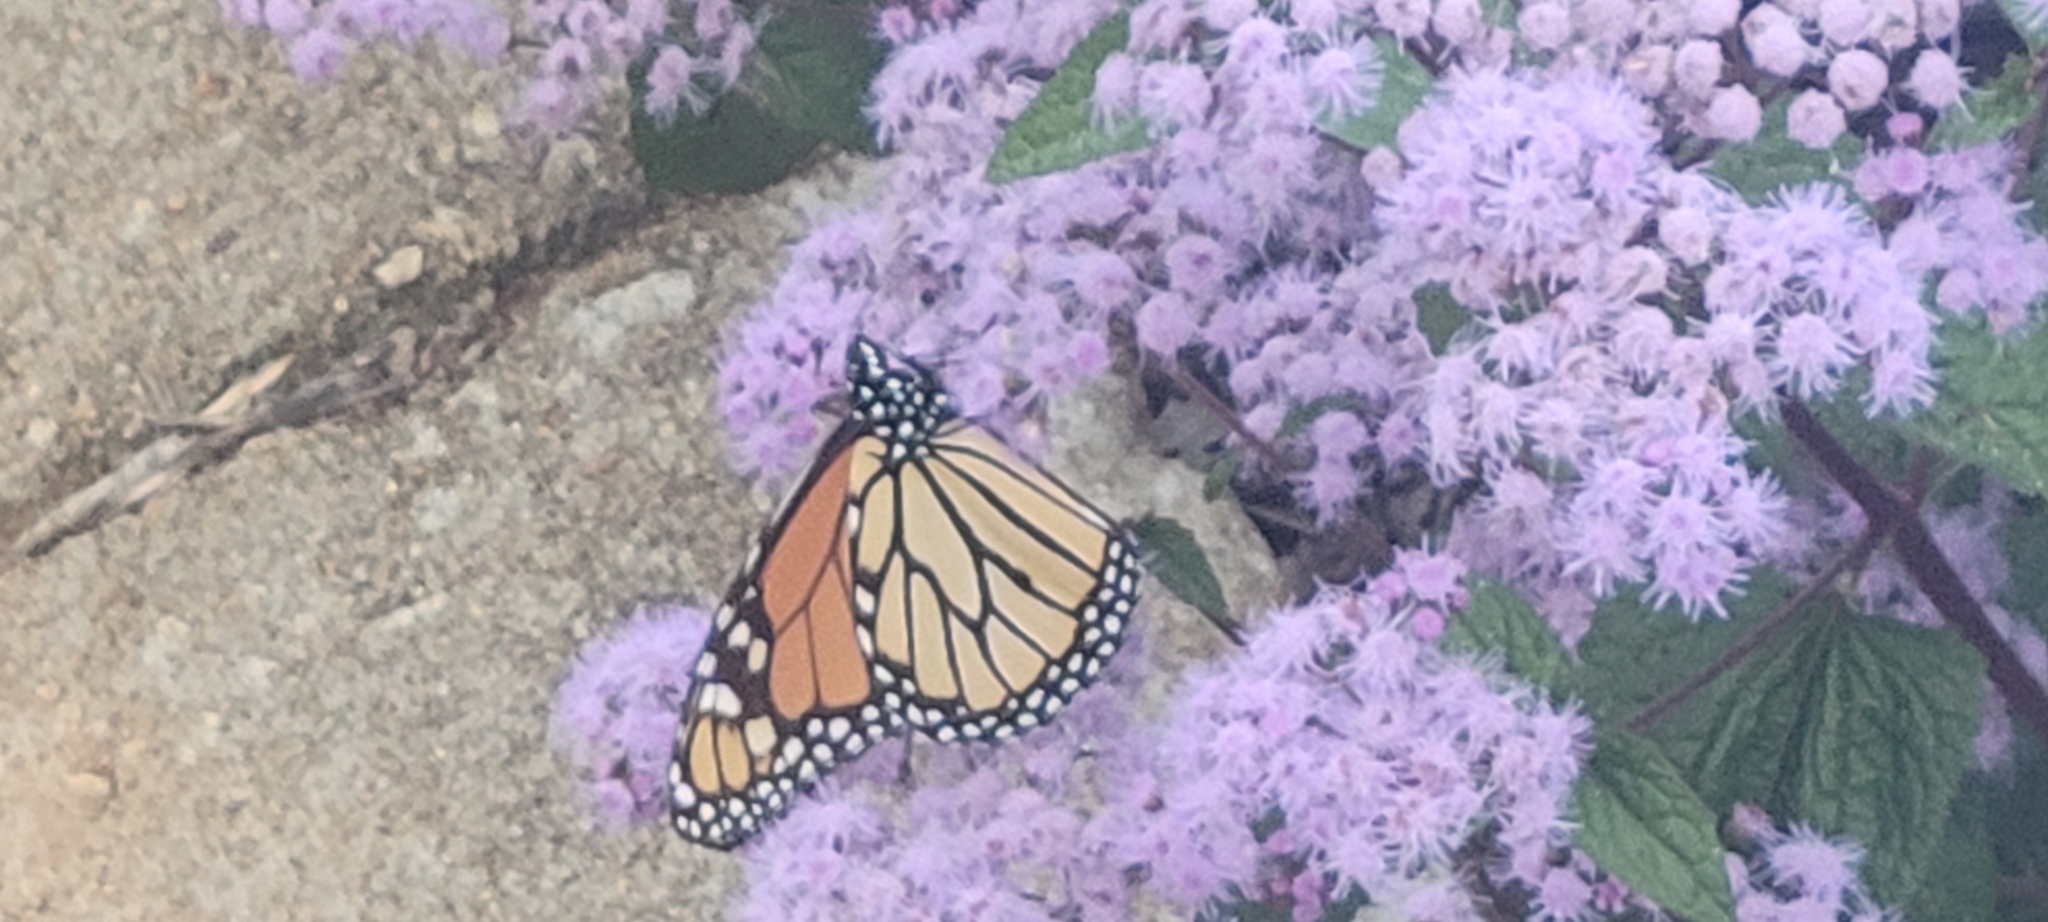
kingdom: Animalia
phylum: Arthropoda
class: Insecta
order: Lepidoptera
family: Nymphalidae
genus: Danaus
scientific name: Danaus plexippus
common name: Monarch
